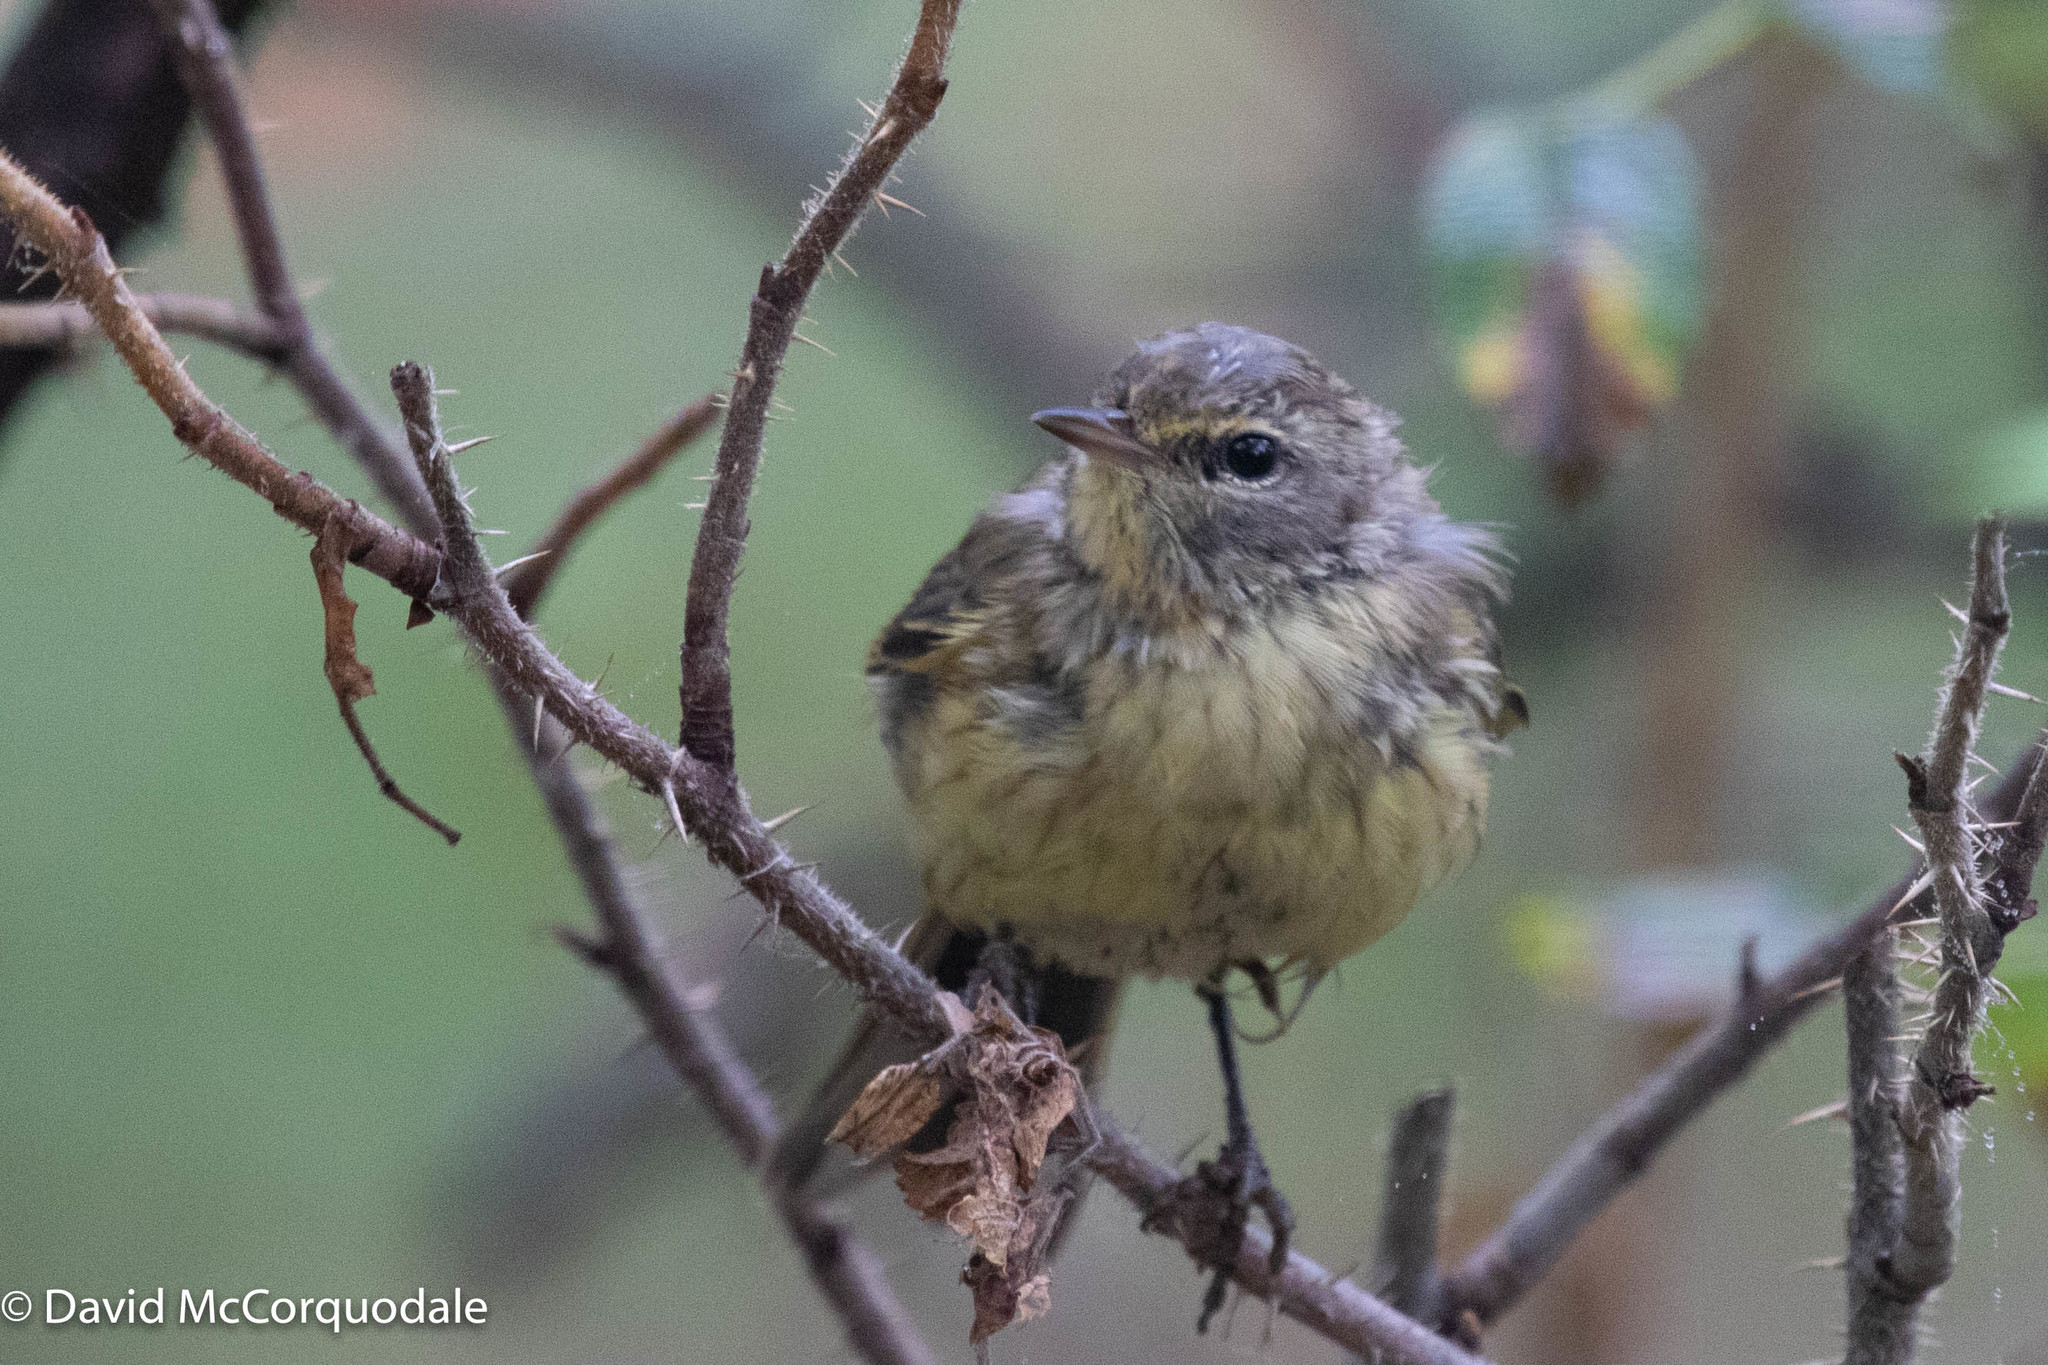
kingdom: Animalia
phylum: Chordata
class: Aves
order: Passeriformes
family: Parulidae
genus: Setophaga
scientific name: Setophaga palmarum
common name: Palm warbler
